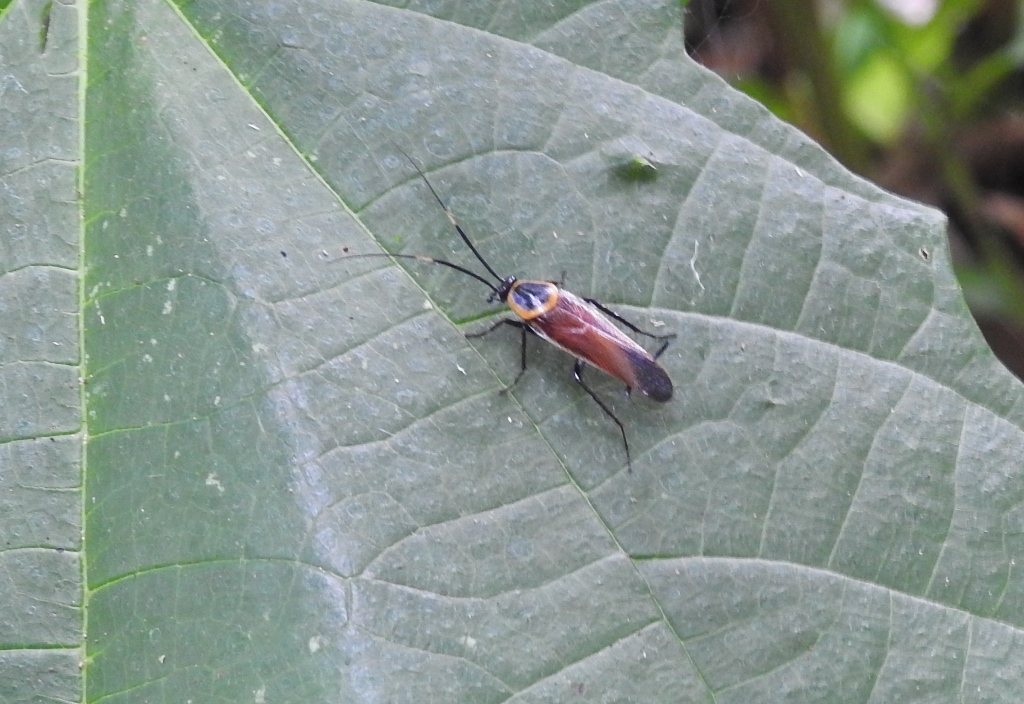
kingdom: Animalia
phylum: Arthropoda
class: Insecta
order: Blattodea
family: Ectobiidae
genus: Pseudomops
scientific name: Pseudomops guerinianus
